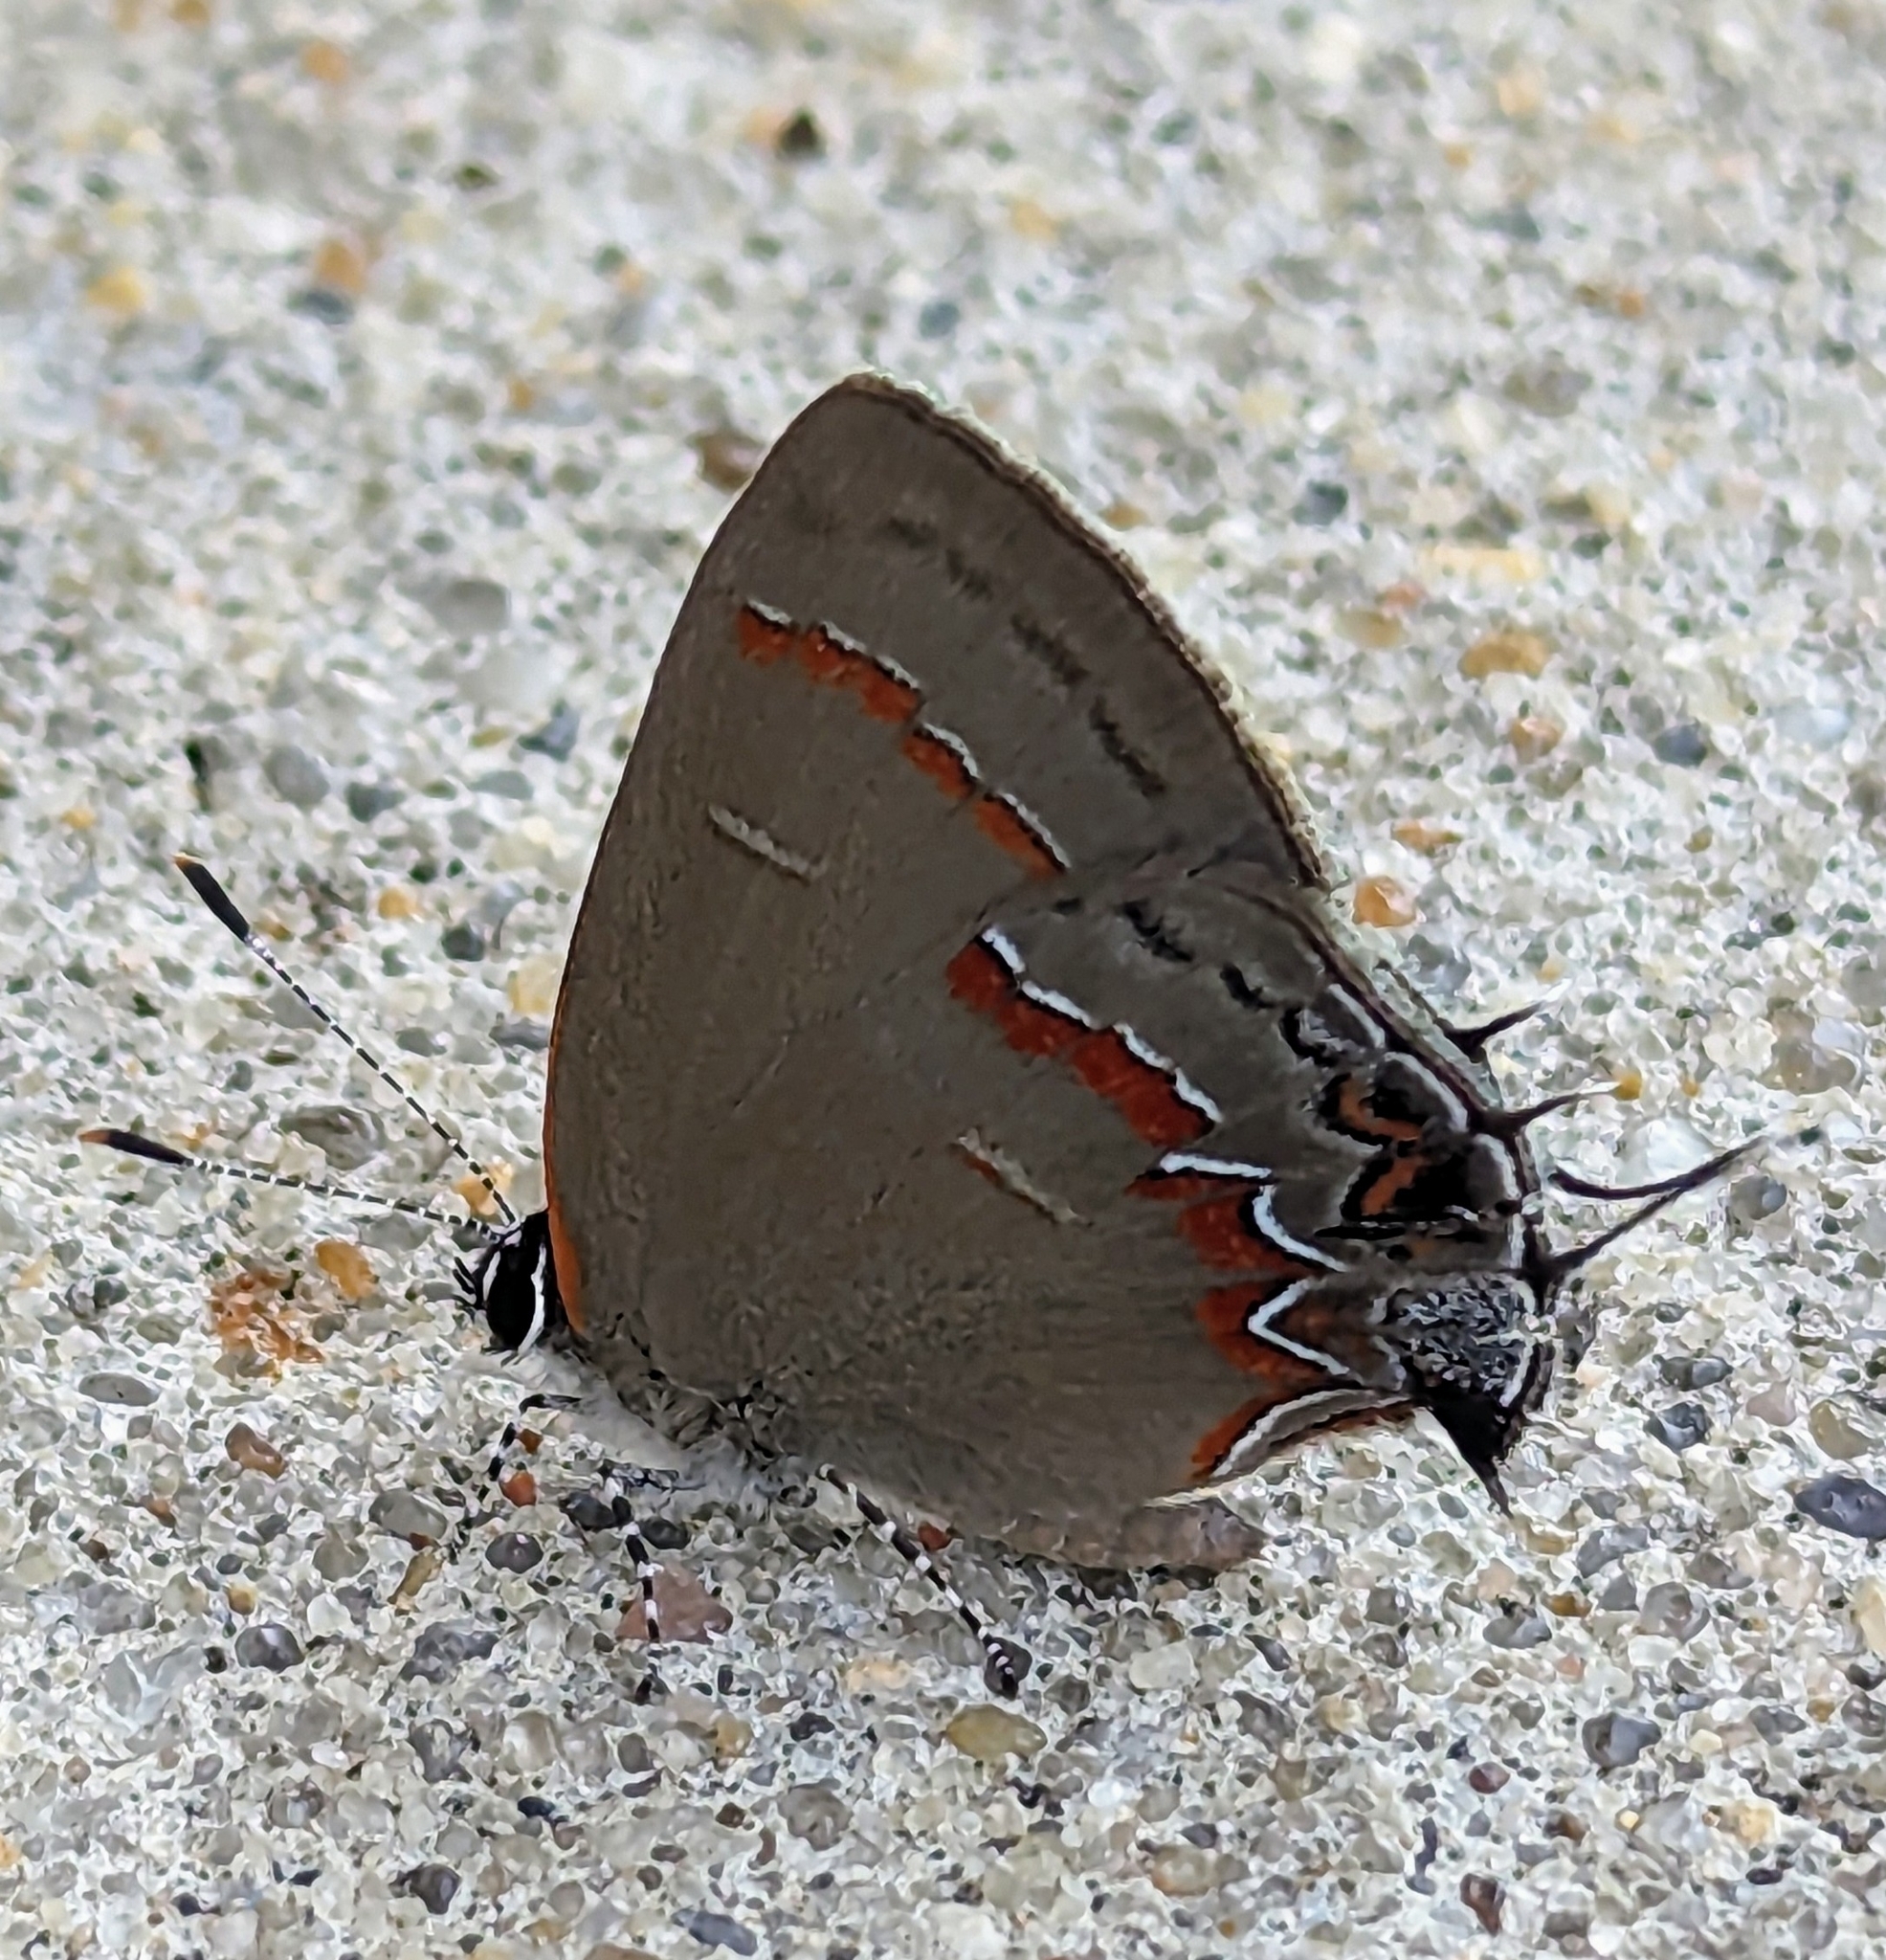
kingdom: Animalia
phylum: Arthropoda
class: Insecta
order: Lepidoptera
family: Lycaenidae
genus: Calycopis
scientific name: Calycopis cecrops
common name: Red-banded hairstreak
